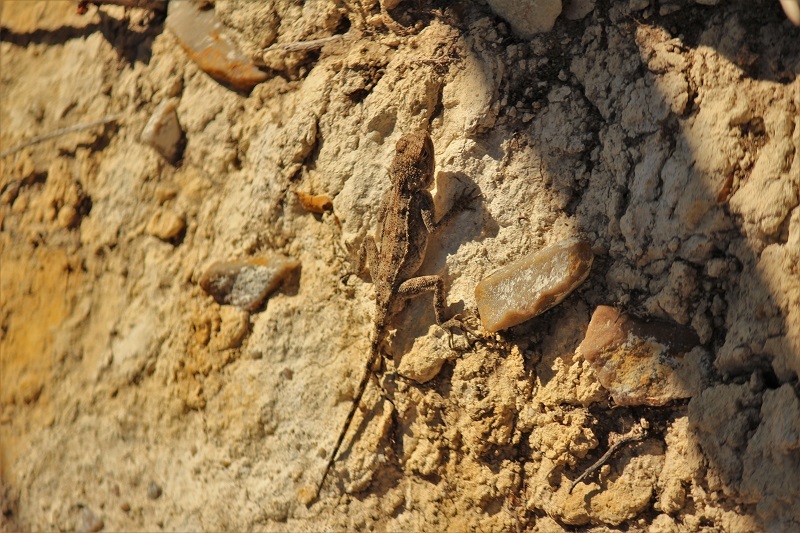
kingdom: Animalia
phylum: Chordata
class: Squamata
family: Agamidae
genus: Agama
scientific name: Agama atra
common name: Southern african rock agama
